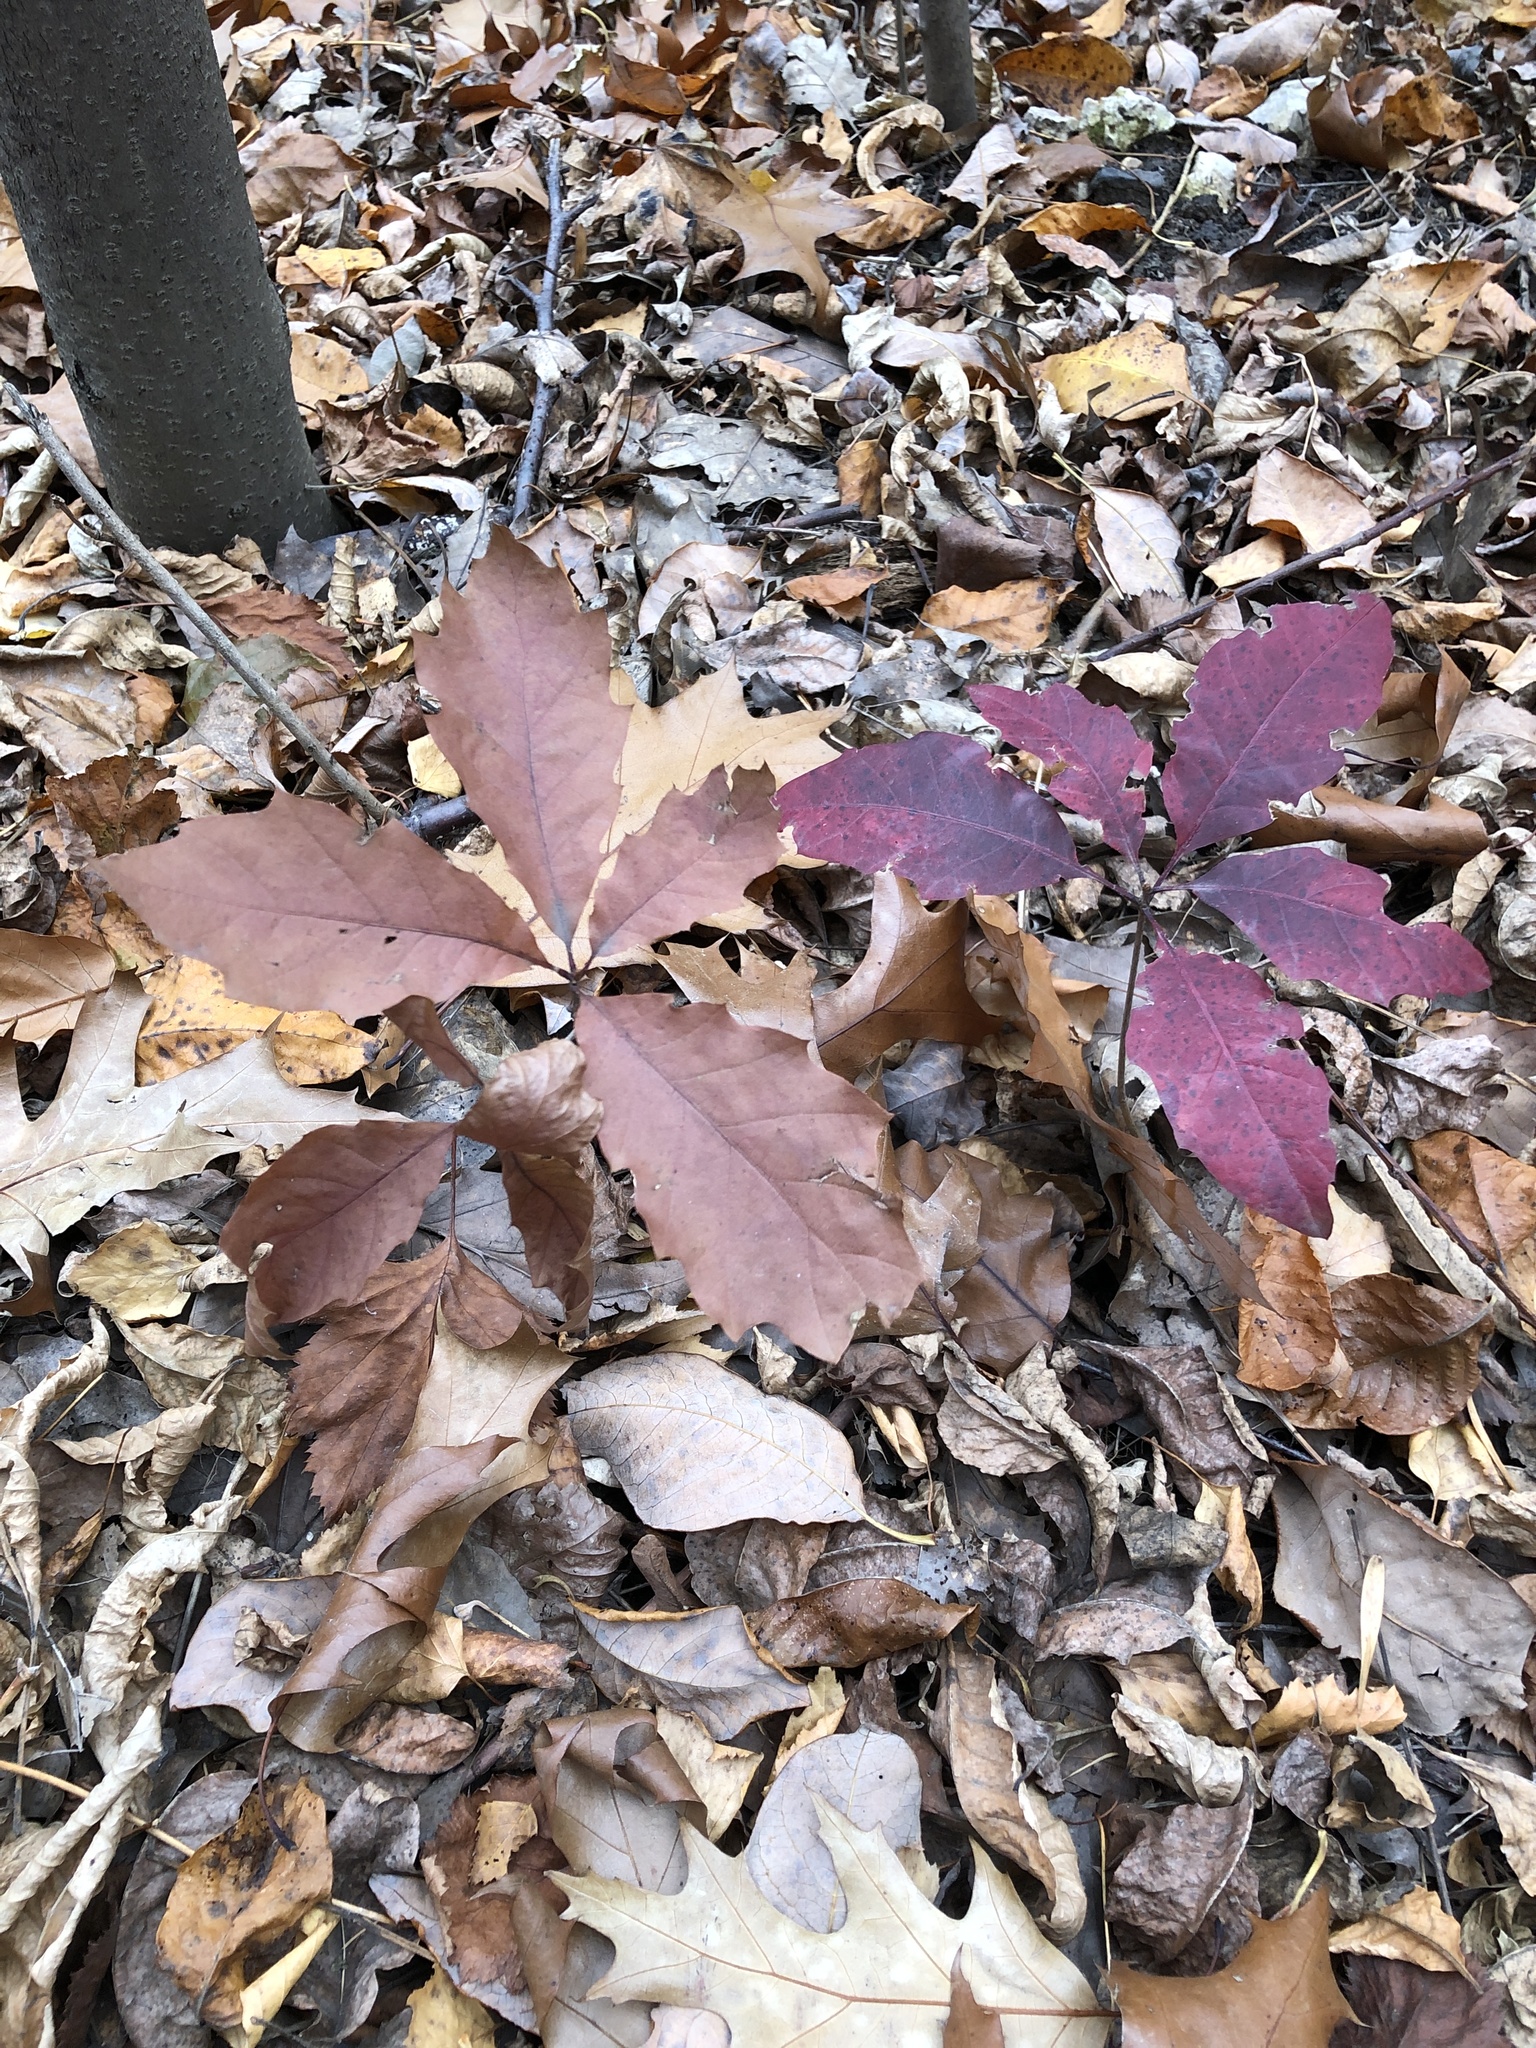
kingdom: Plantae
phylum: Tracheophyta
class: Magnoliopsida
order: Fagales
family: Fagaceae
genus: Quercus
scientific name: Quercus rubra
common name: Red oak
